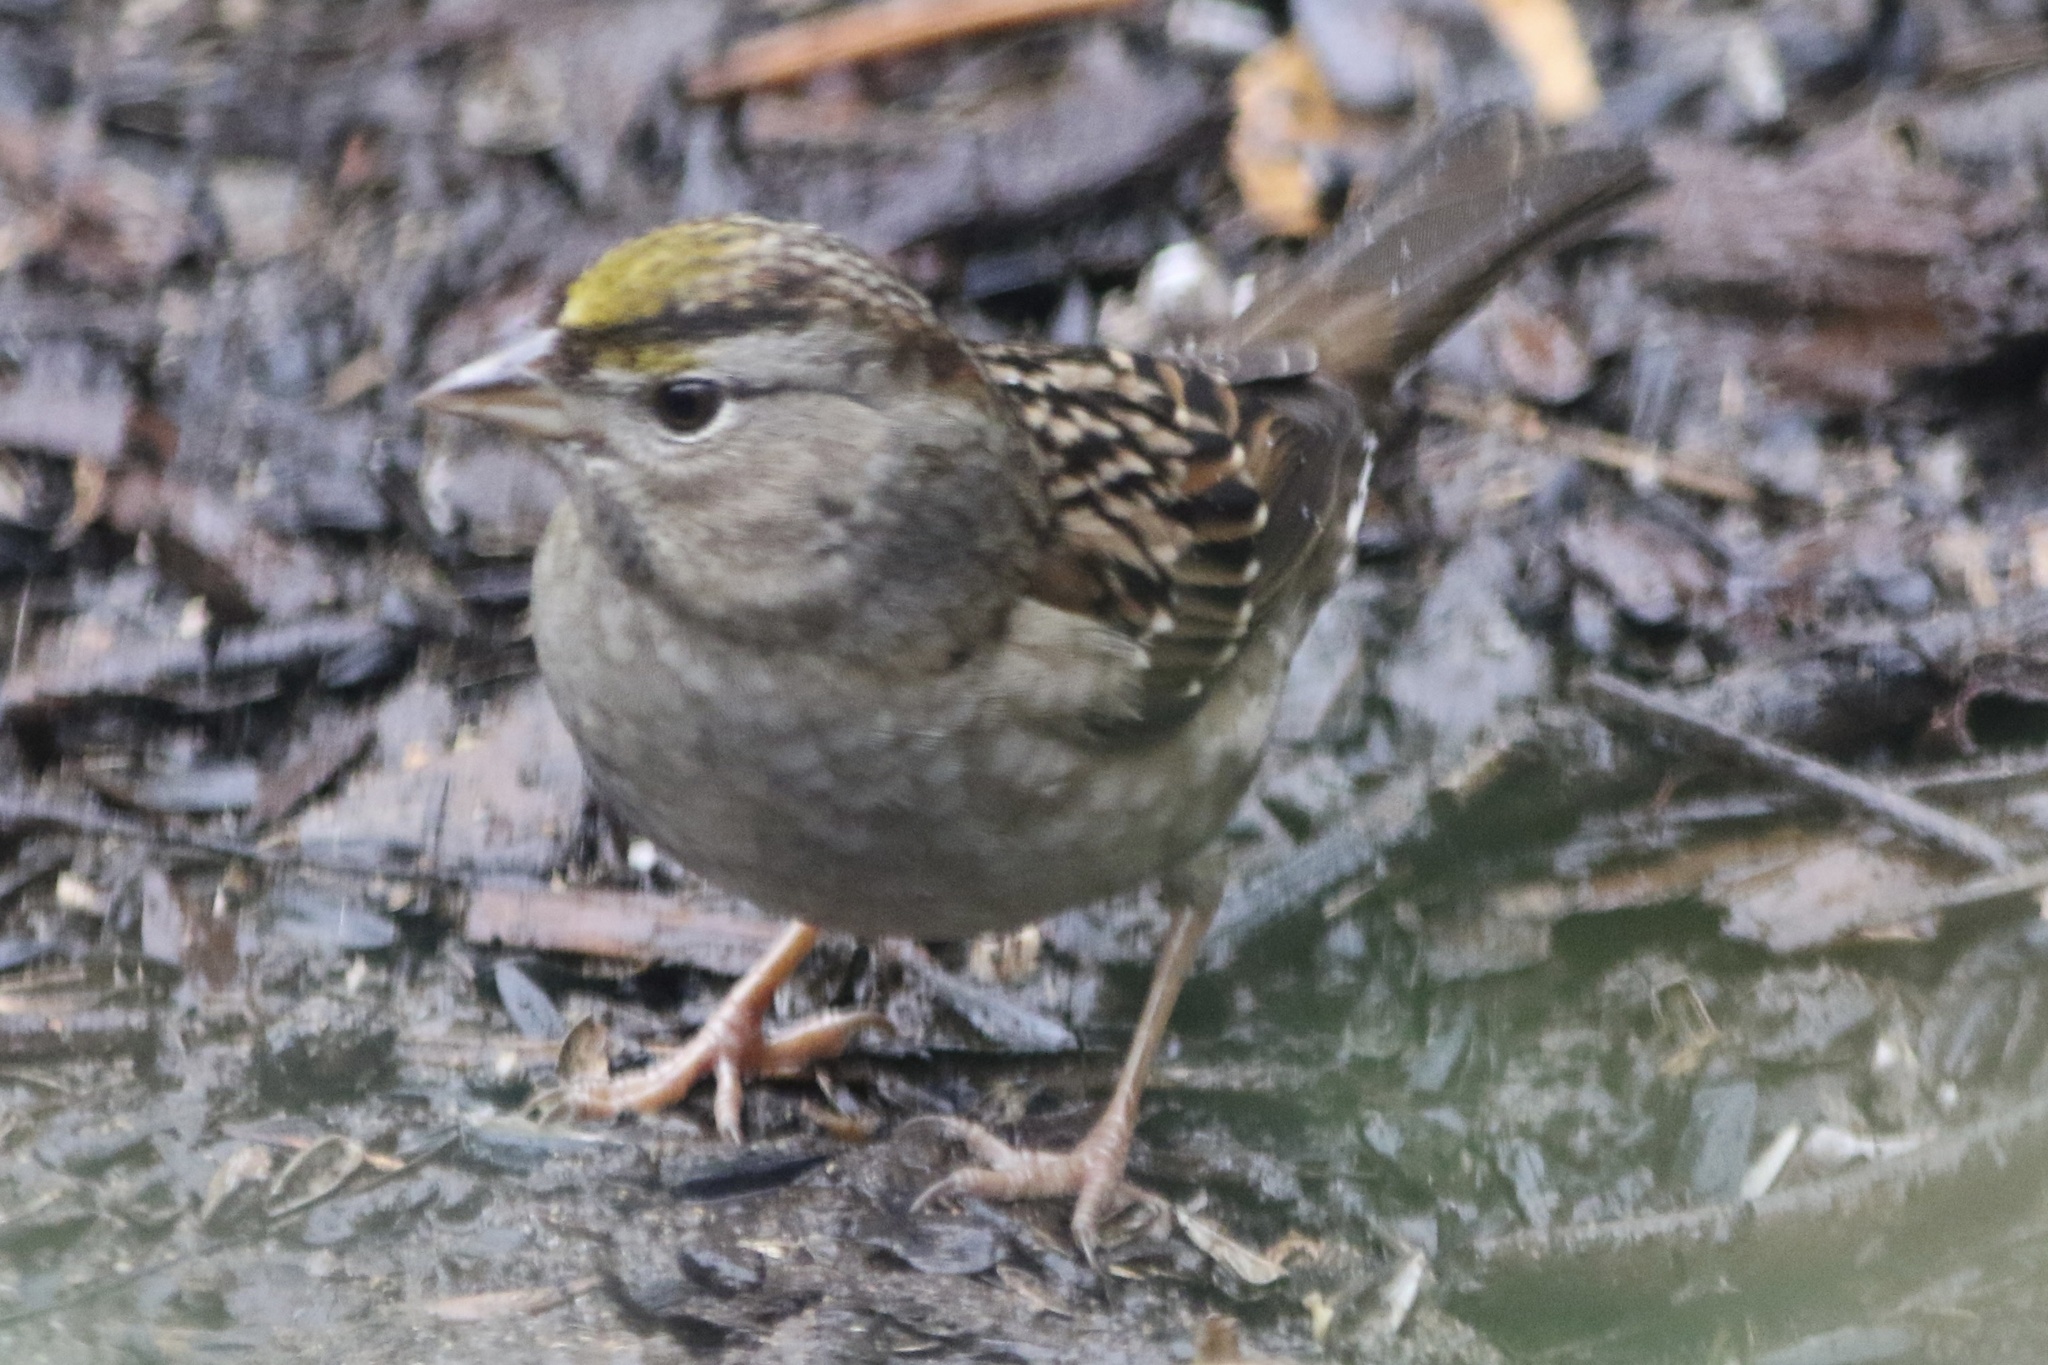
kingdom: Animalia
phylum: Chordata
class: Aves
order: Passeriformes
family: Passerellidae
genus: Zonotrichia
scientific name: Zonotrichia atricapilla
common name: Golden-crowned sparrow
